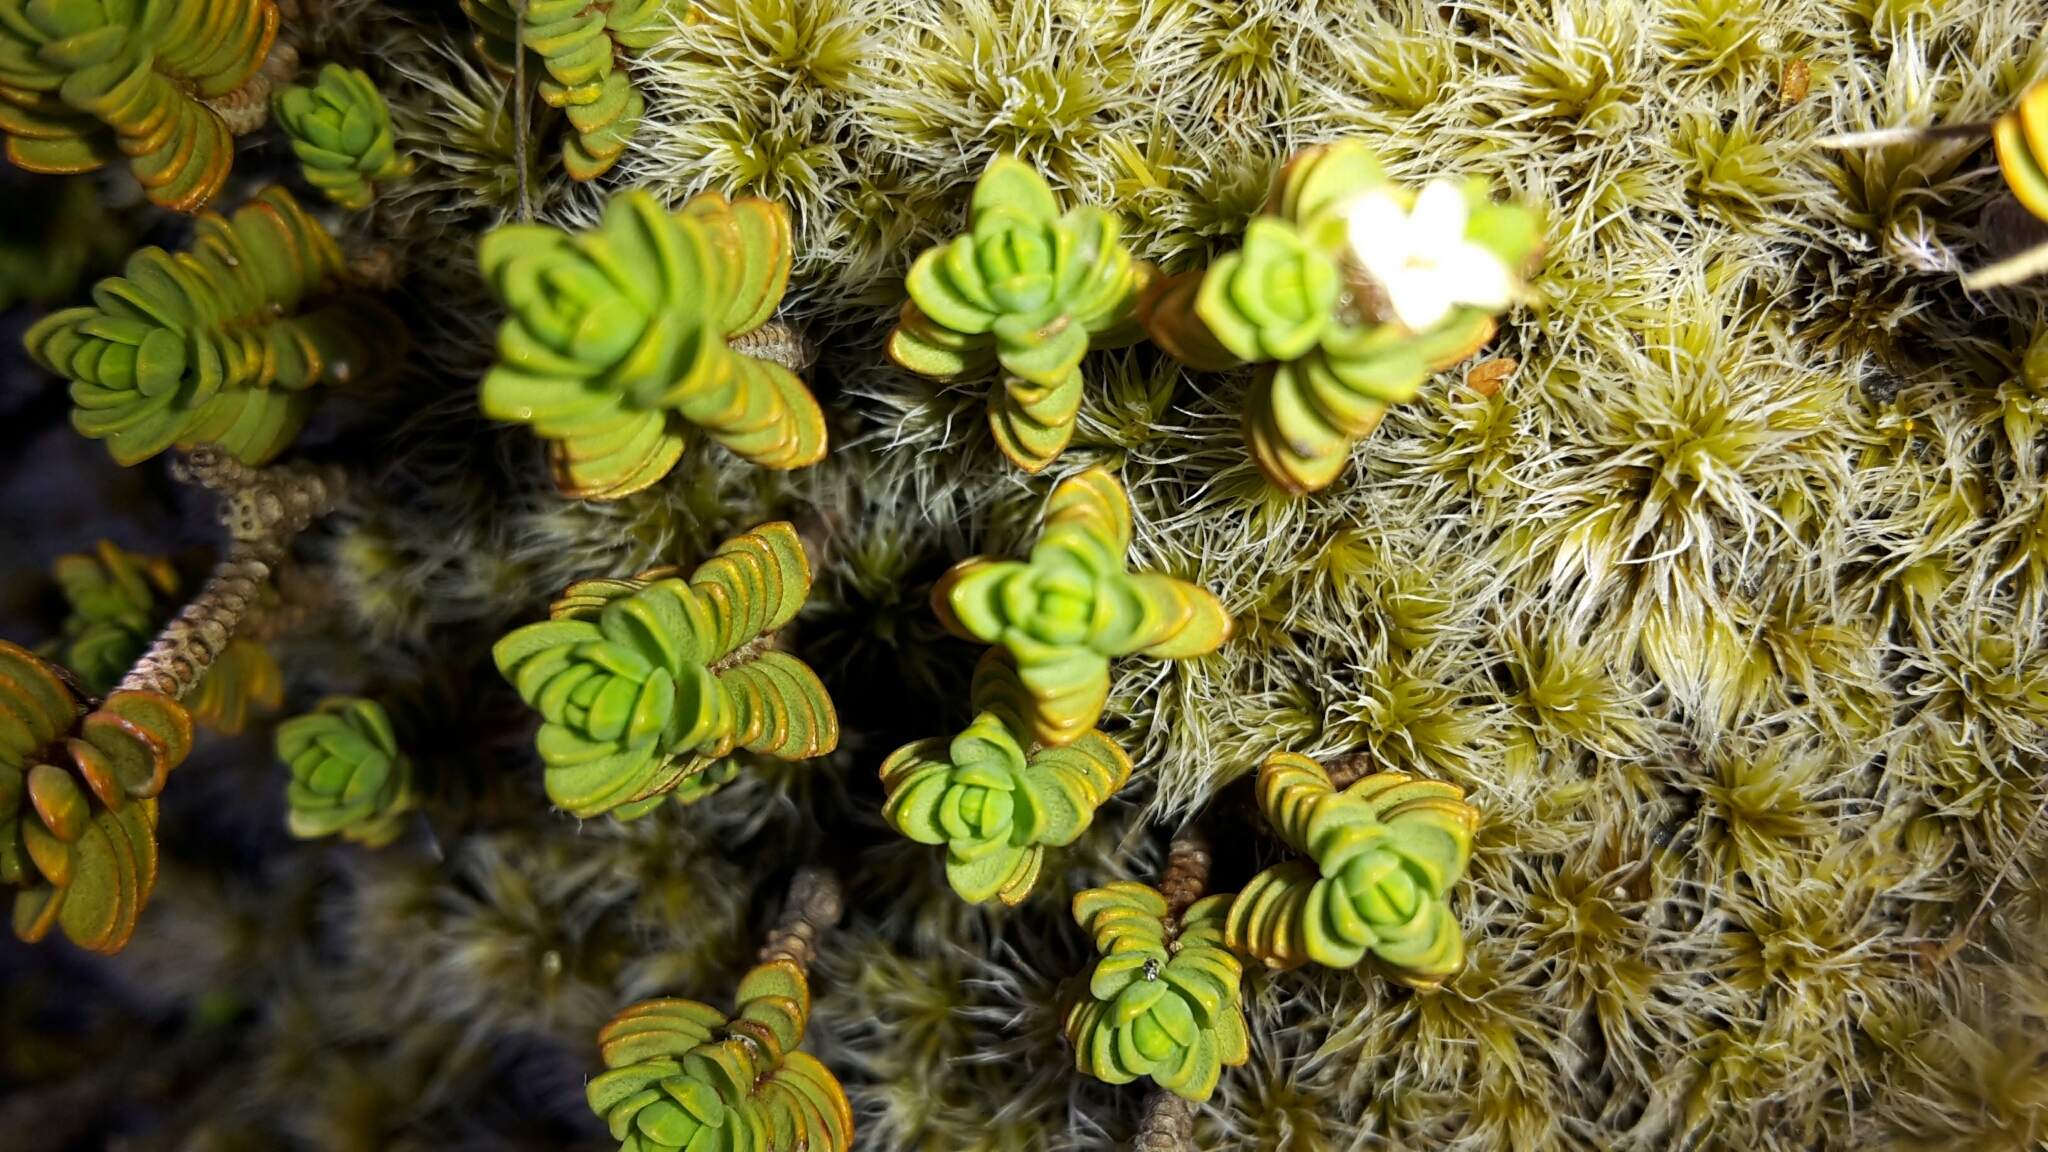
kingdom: Plantae
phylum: Tracheophyta
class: Magnoliopsida
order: Malvales
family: Thymelaeaceae
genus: Pimelea
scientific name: Pimelea microphylla
